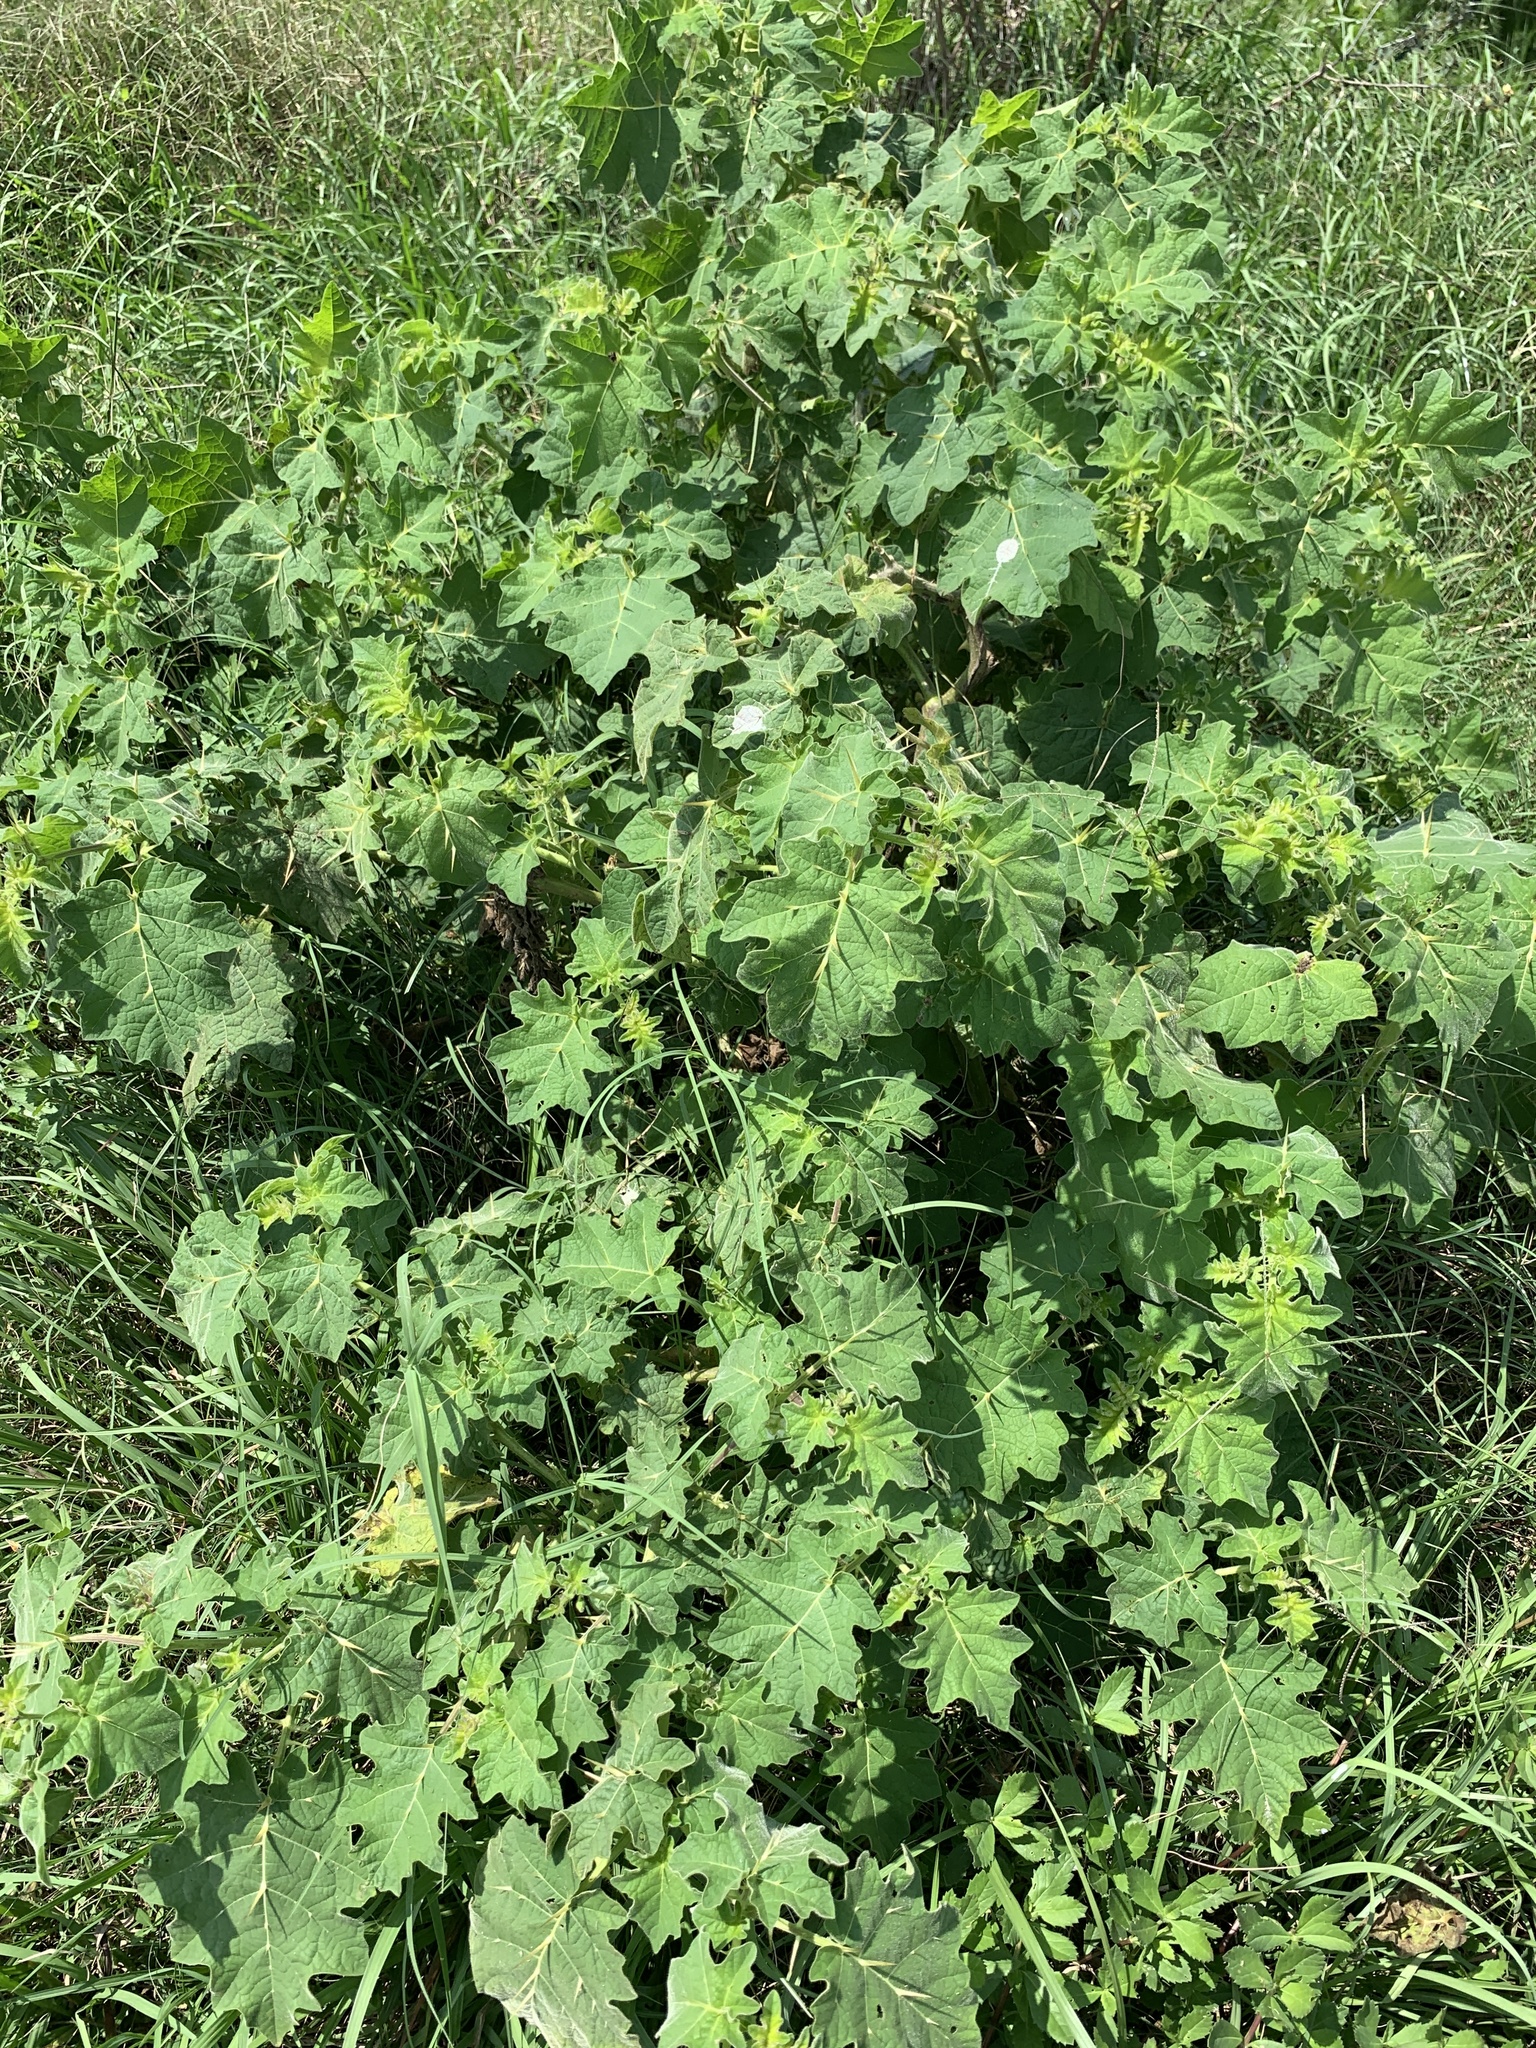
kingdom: Plantae
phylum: Tracheophyta
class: Magnoliopsida
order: Solanales
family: Solanaceae
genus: Solanum
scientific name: Solanum viarum
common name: Tropical soda apple
